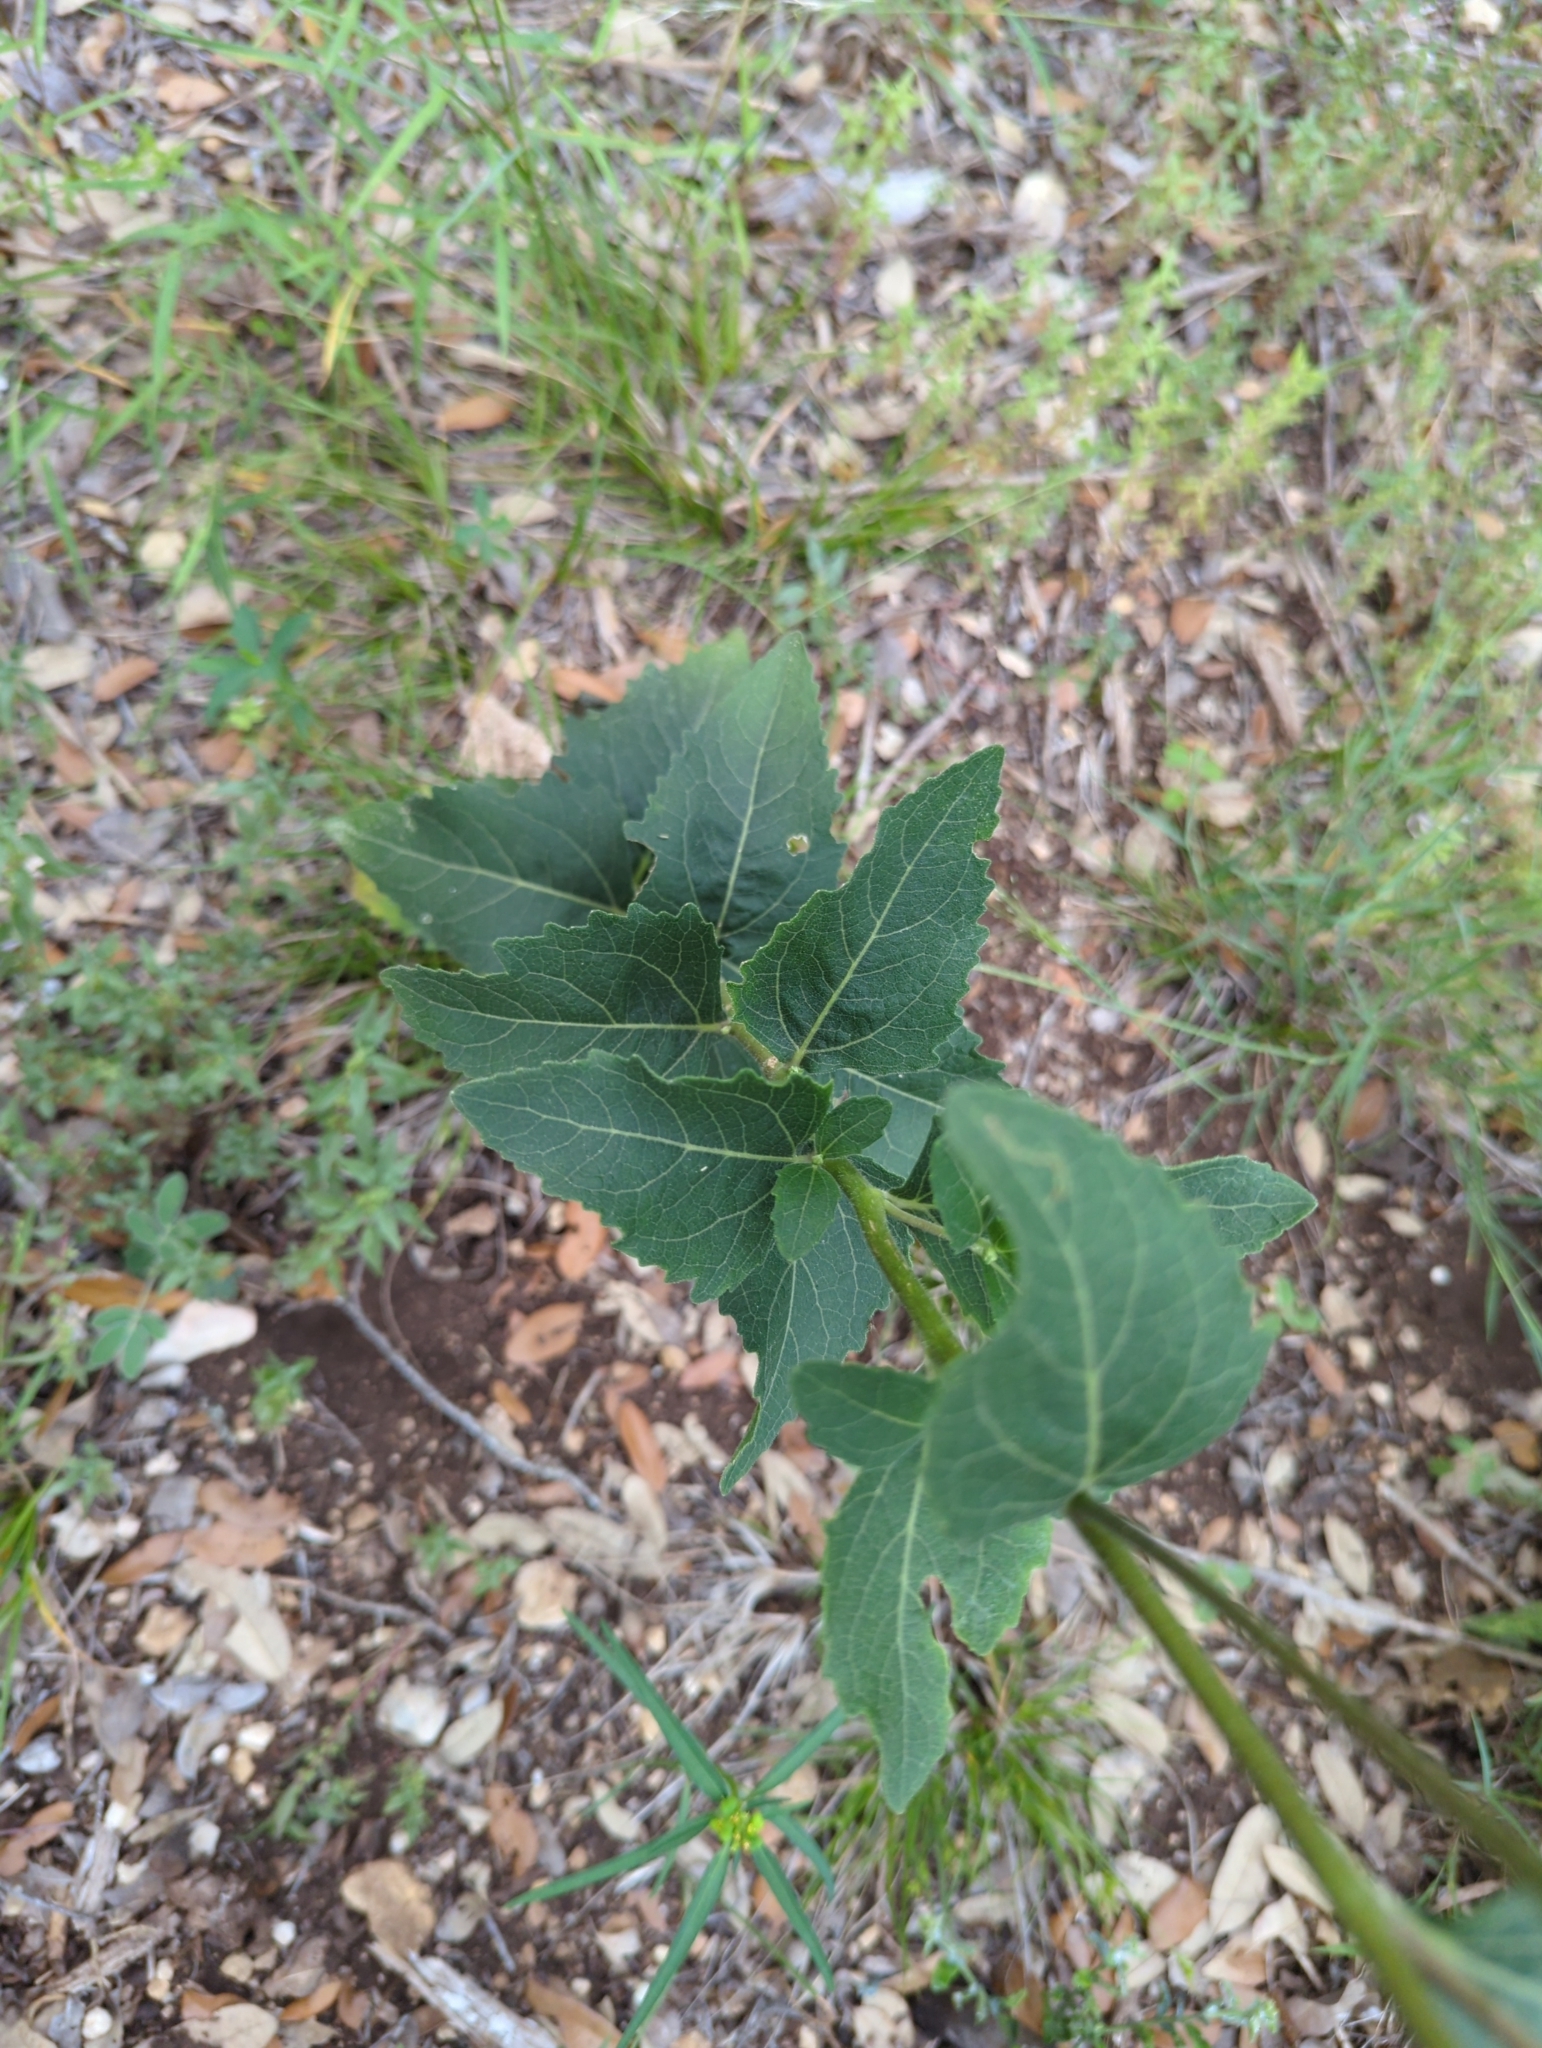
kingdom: Plantae
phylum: Tracheophyta
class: Magnoliopsida
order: Asterales
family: Asteraceae
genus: Verbesina
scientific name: Verbesina lindheimeri
